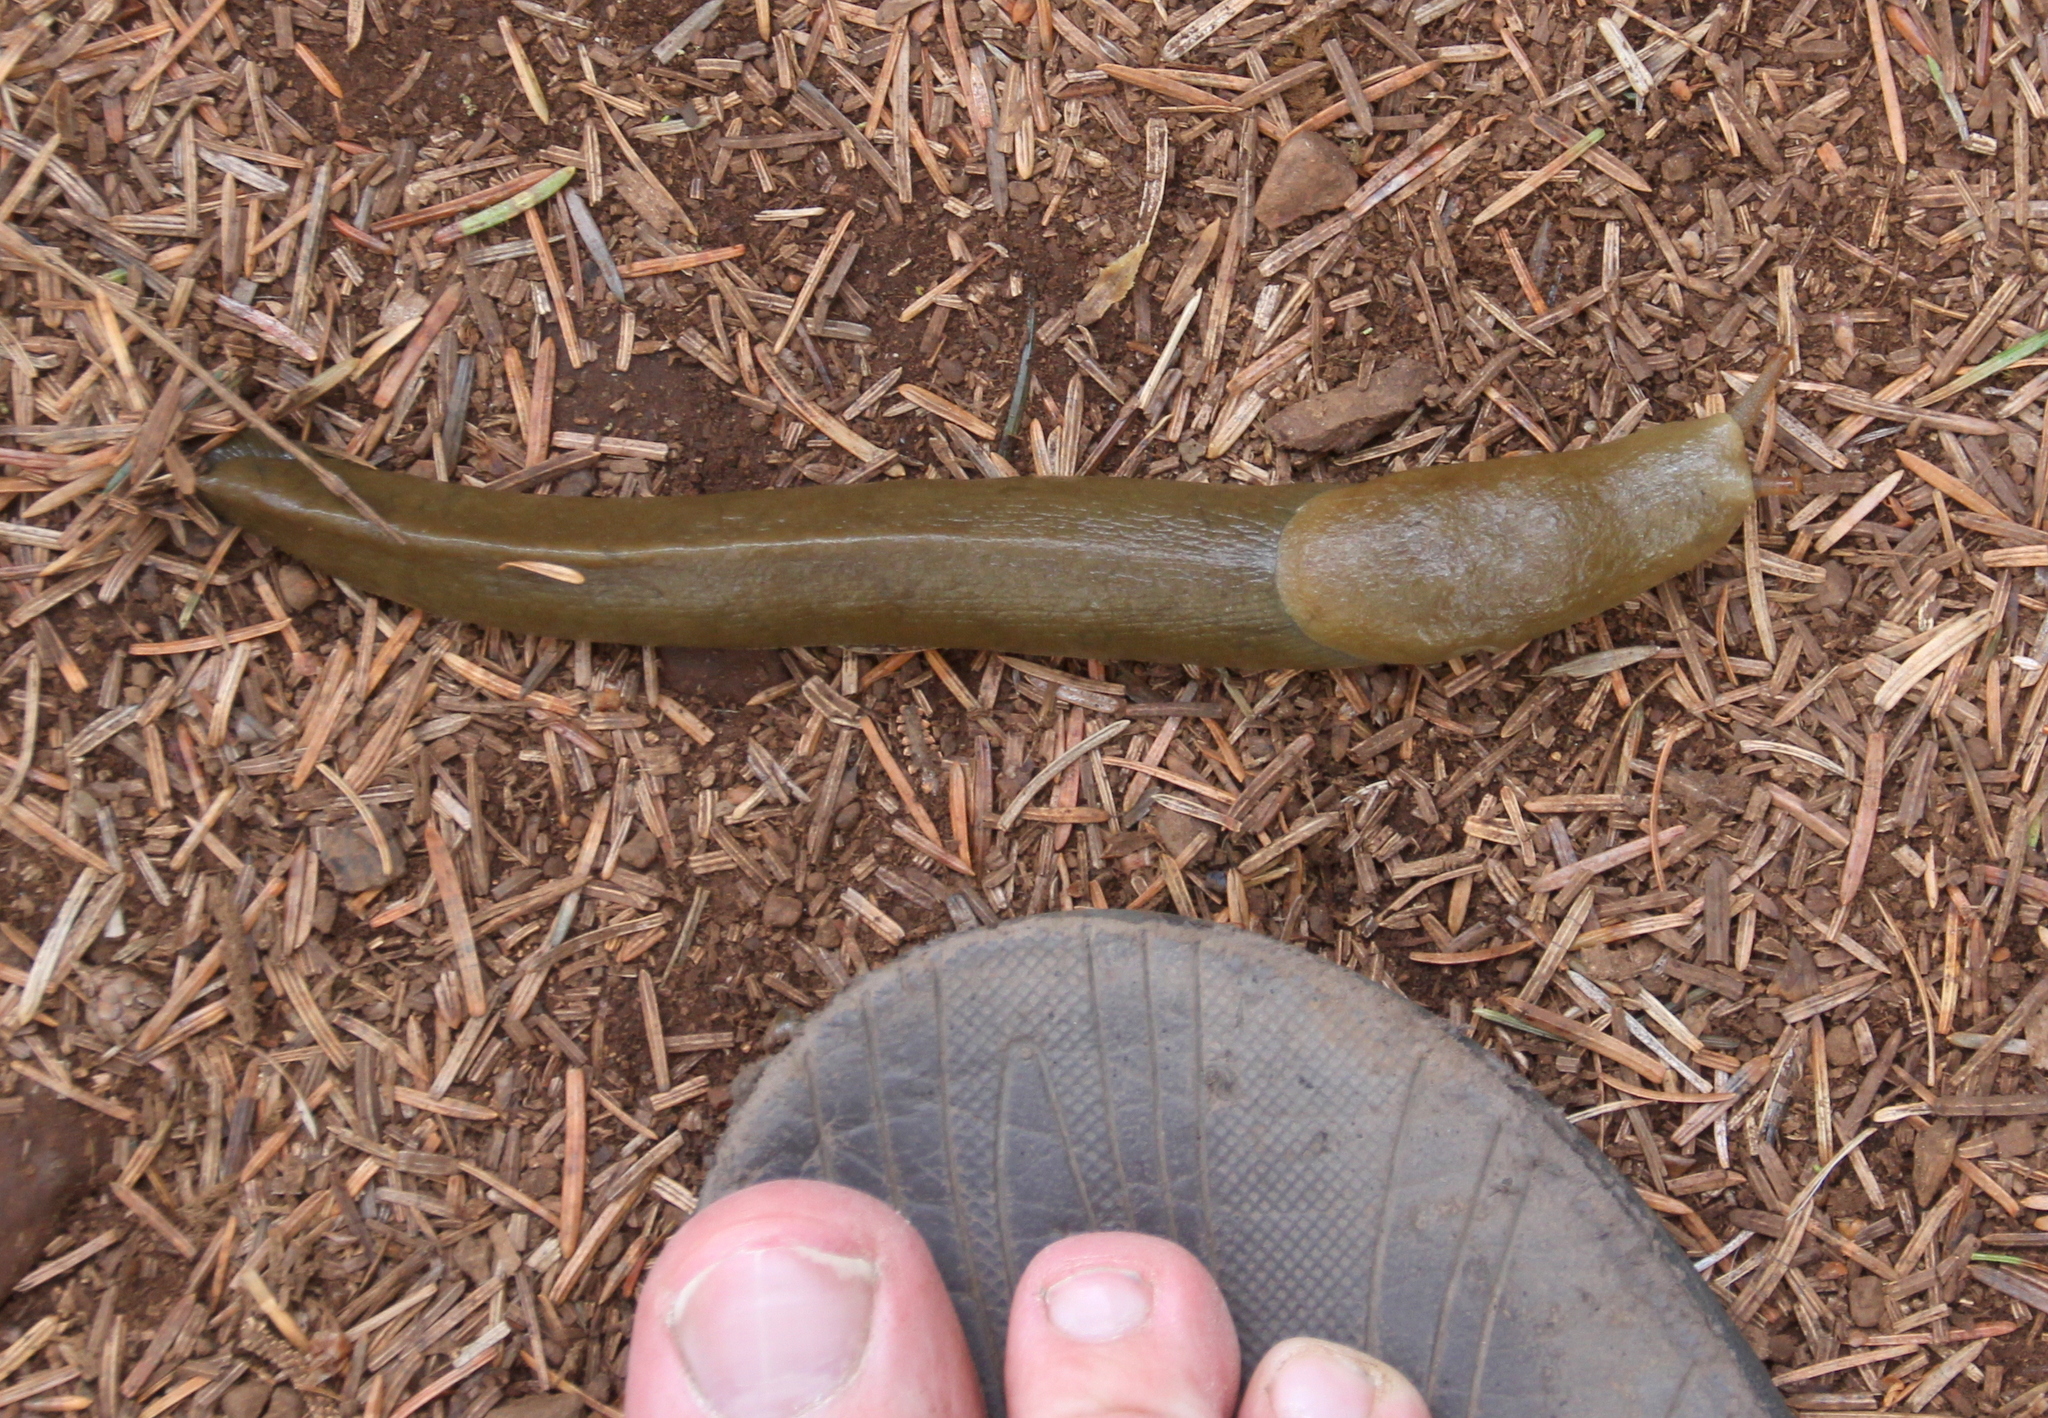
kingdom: Animalia
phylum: Mollusca
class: Gastropoda
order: Stylommatophora
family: Ariolimacidae
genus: Ariolimax
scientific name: Ariolimax columbianus
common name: Pacific banana slug
